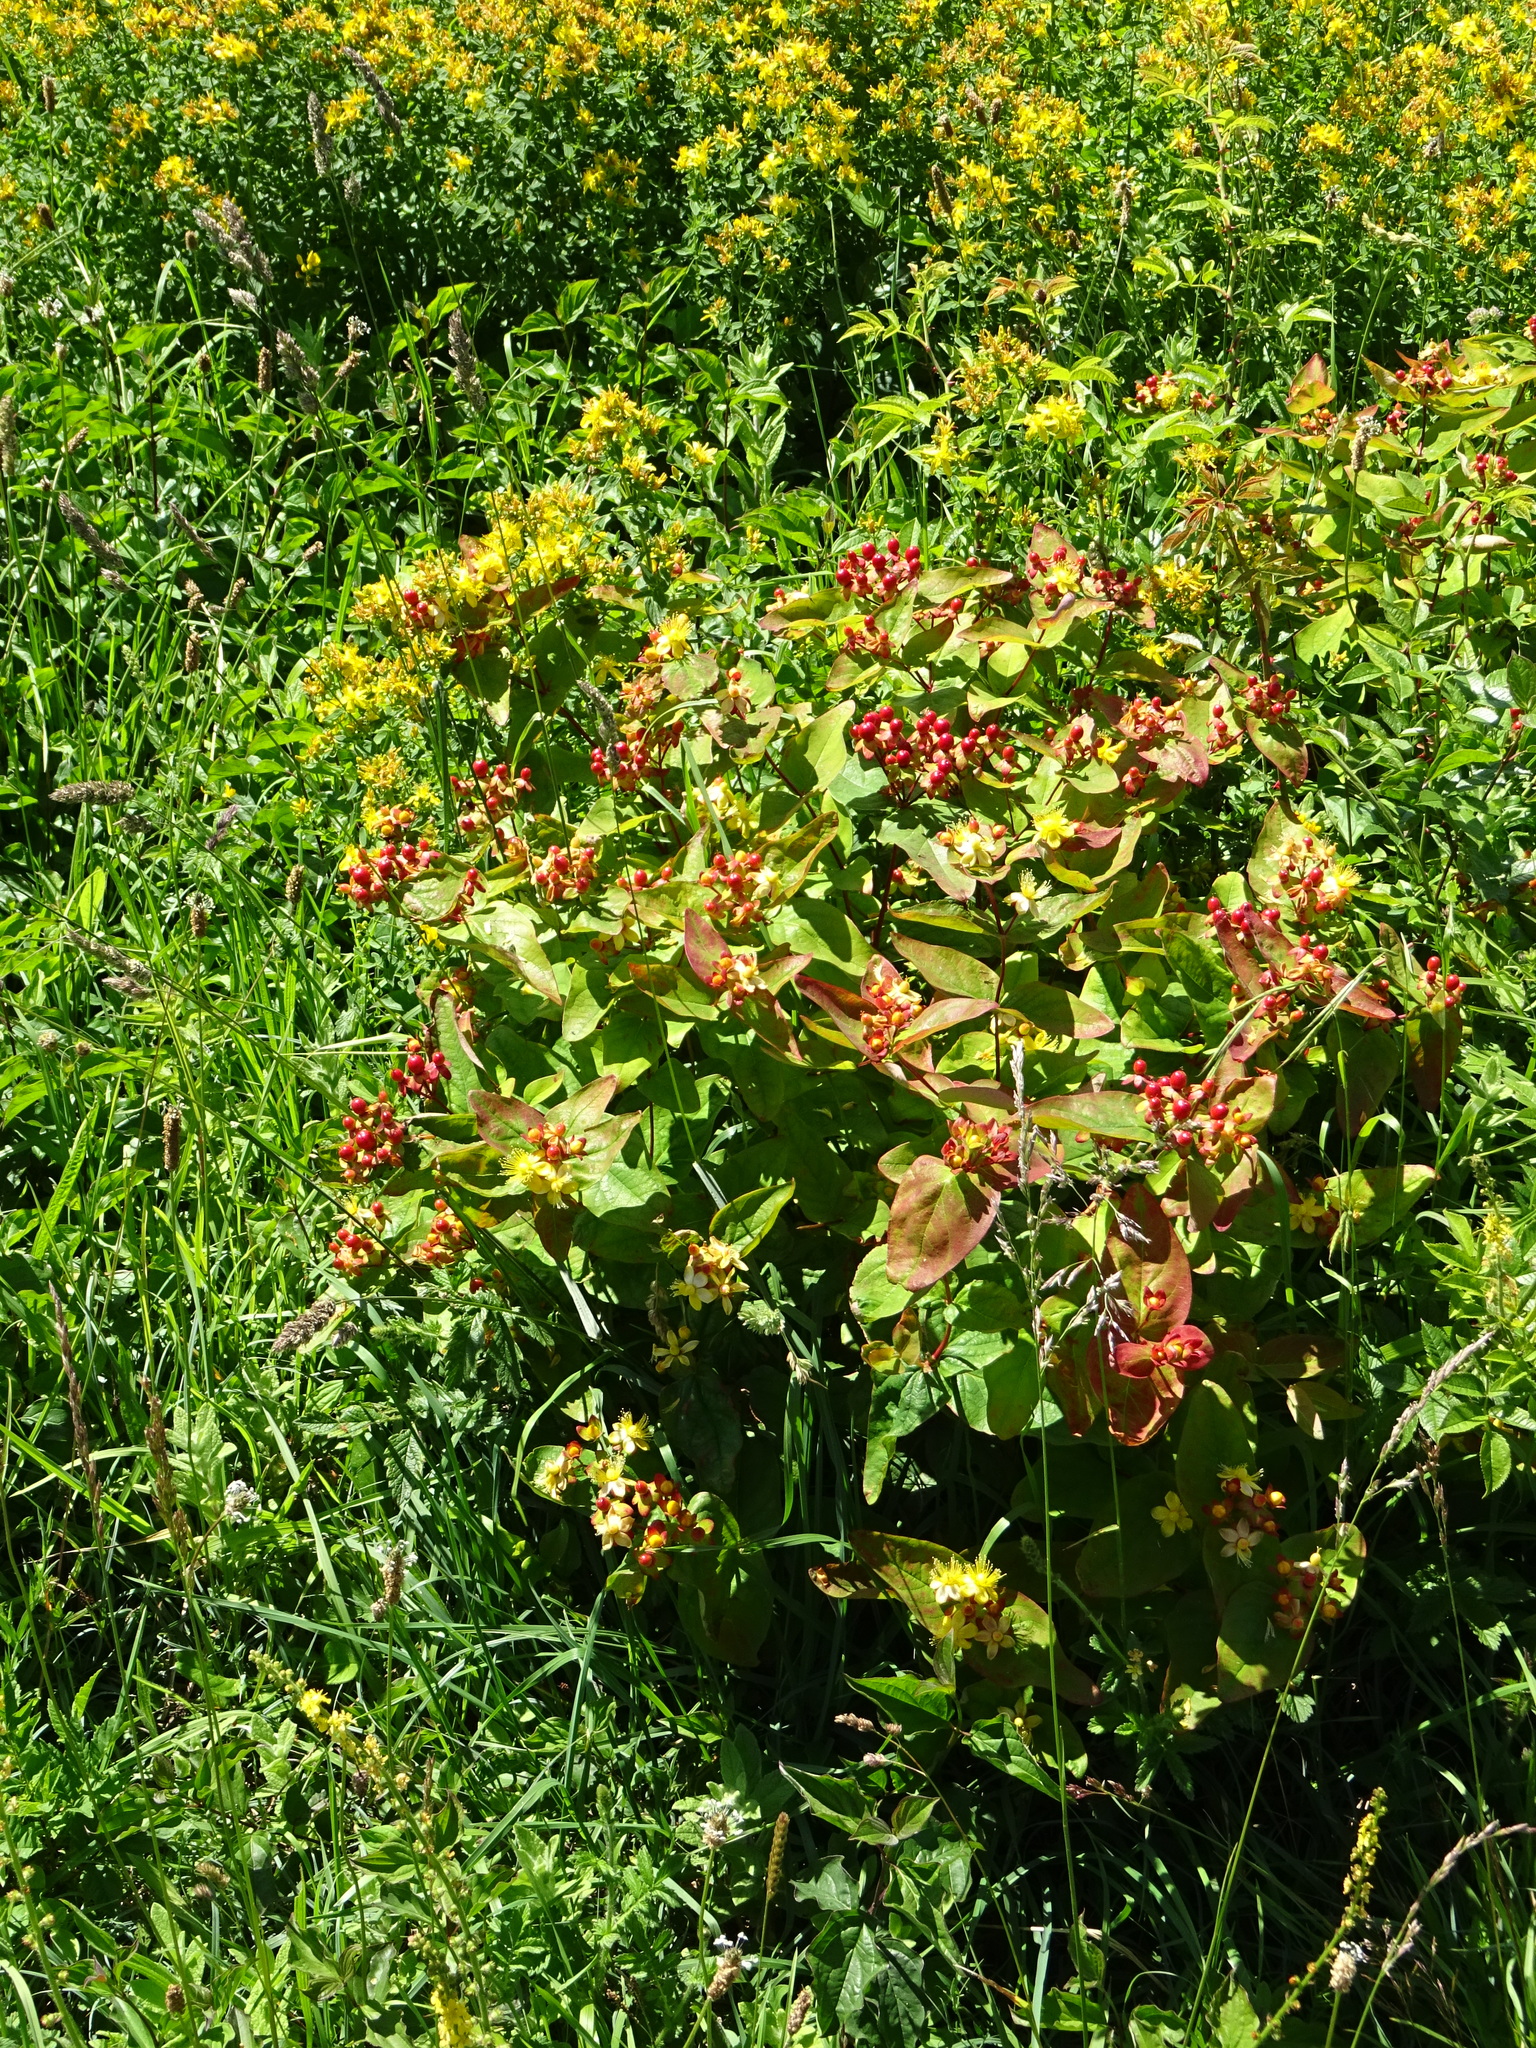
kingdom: Plantae
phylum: Tracheophyta
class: Magnoliopsida
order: Malpighiales
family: Hypericaceae
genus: Hypericum
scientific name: Hypericum androsaemum
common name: Sweet-amber
